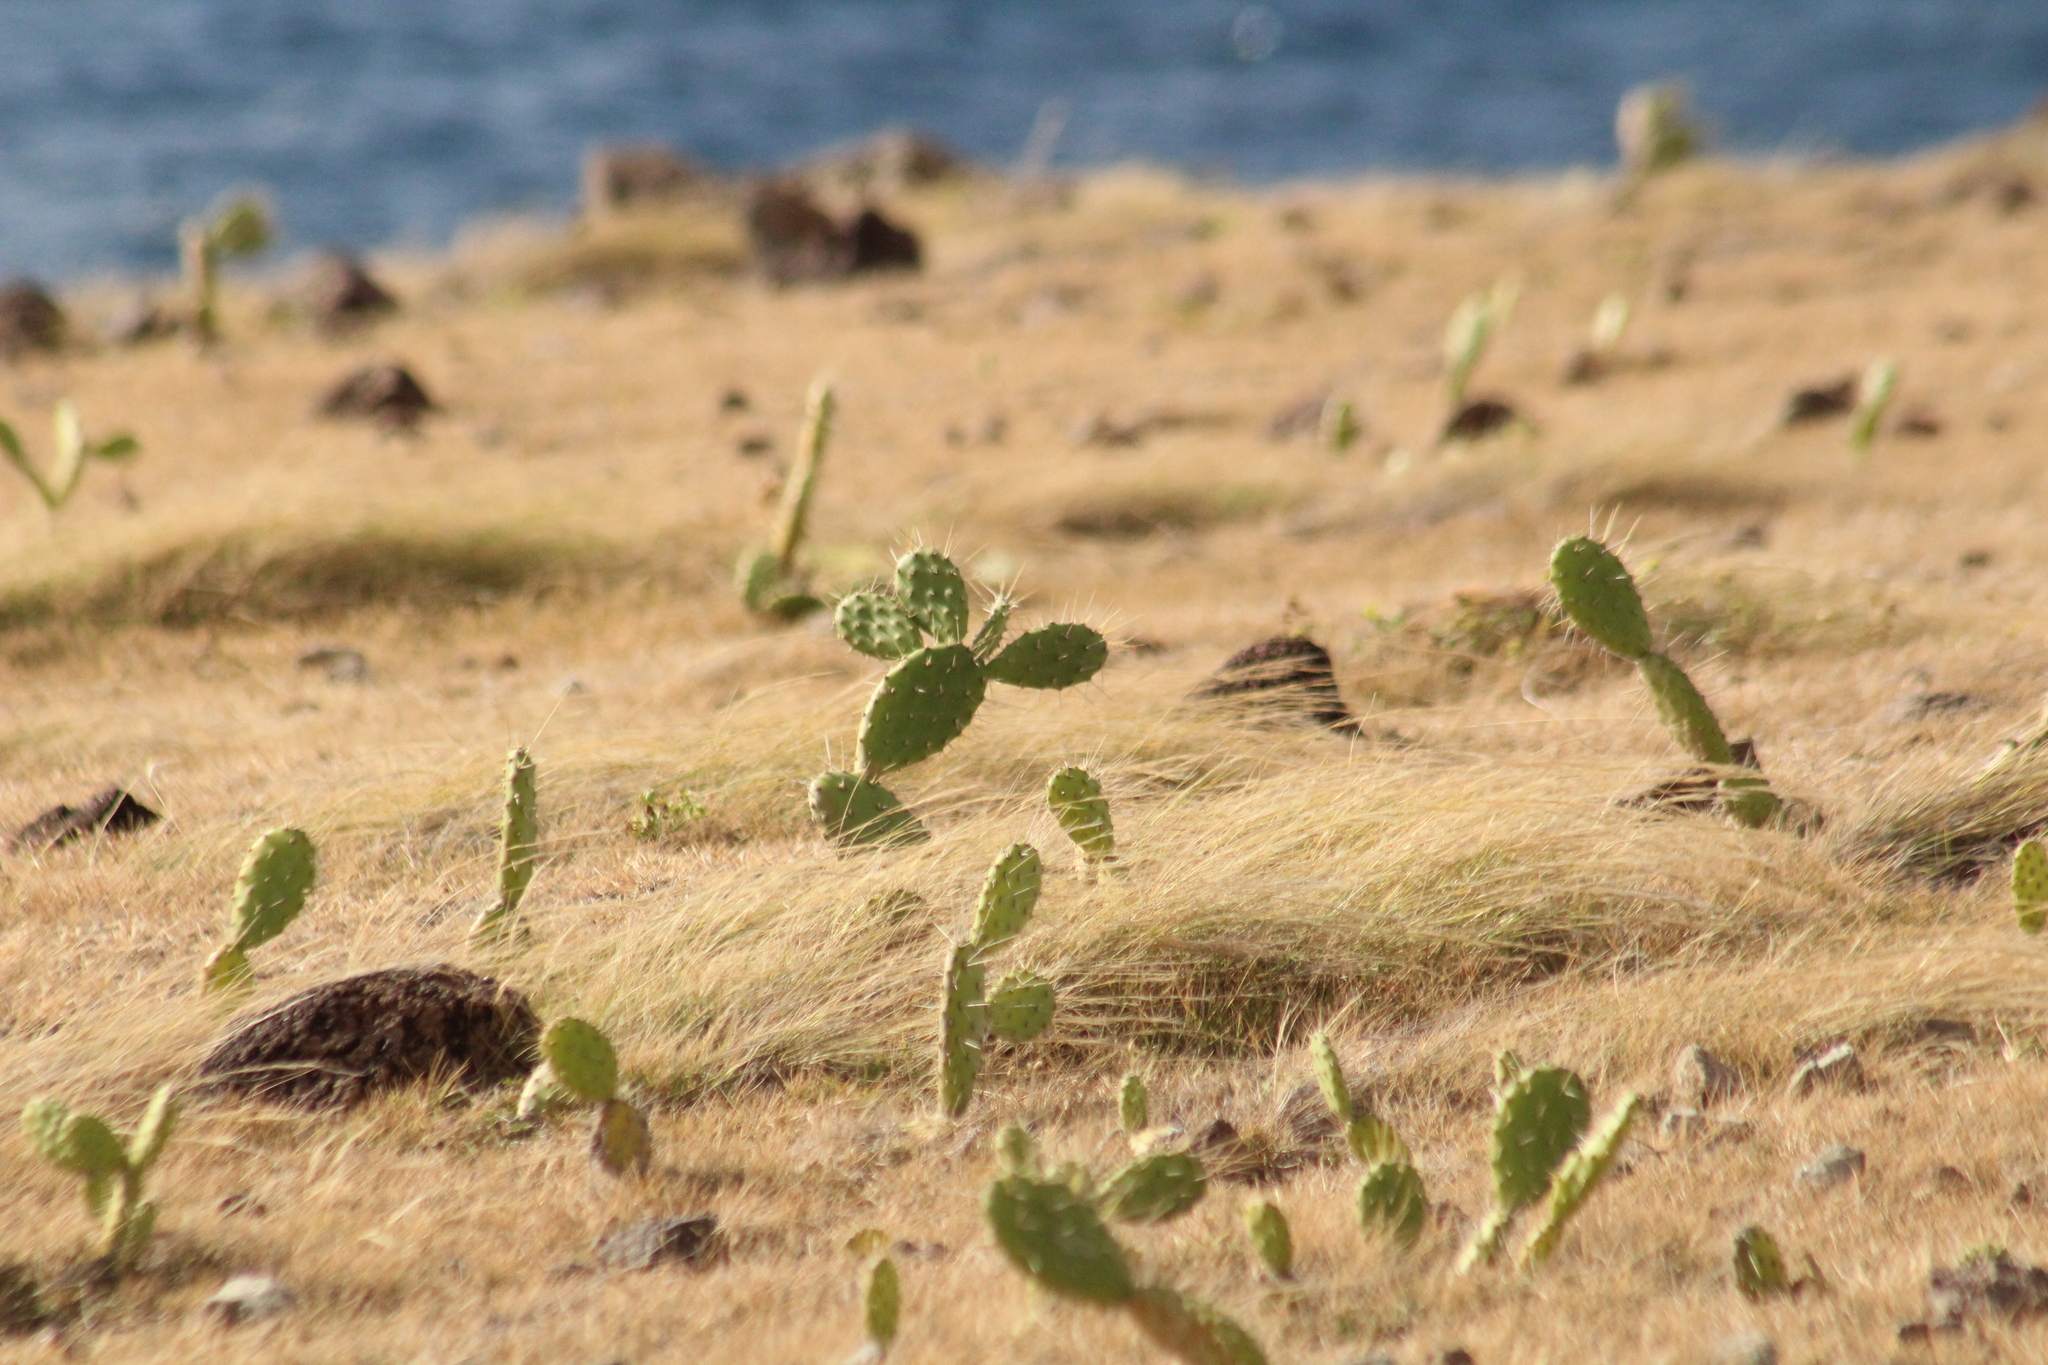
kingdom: Plantae
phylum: Tracheophyta
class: Magnoliopsida
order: Caryophyllales
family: Cactaceae
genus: Opuntia
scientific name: Opuntia triacanthos
